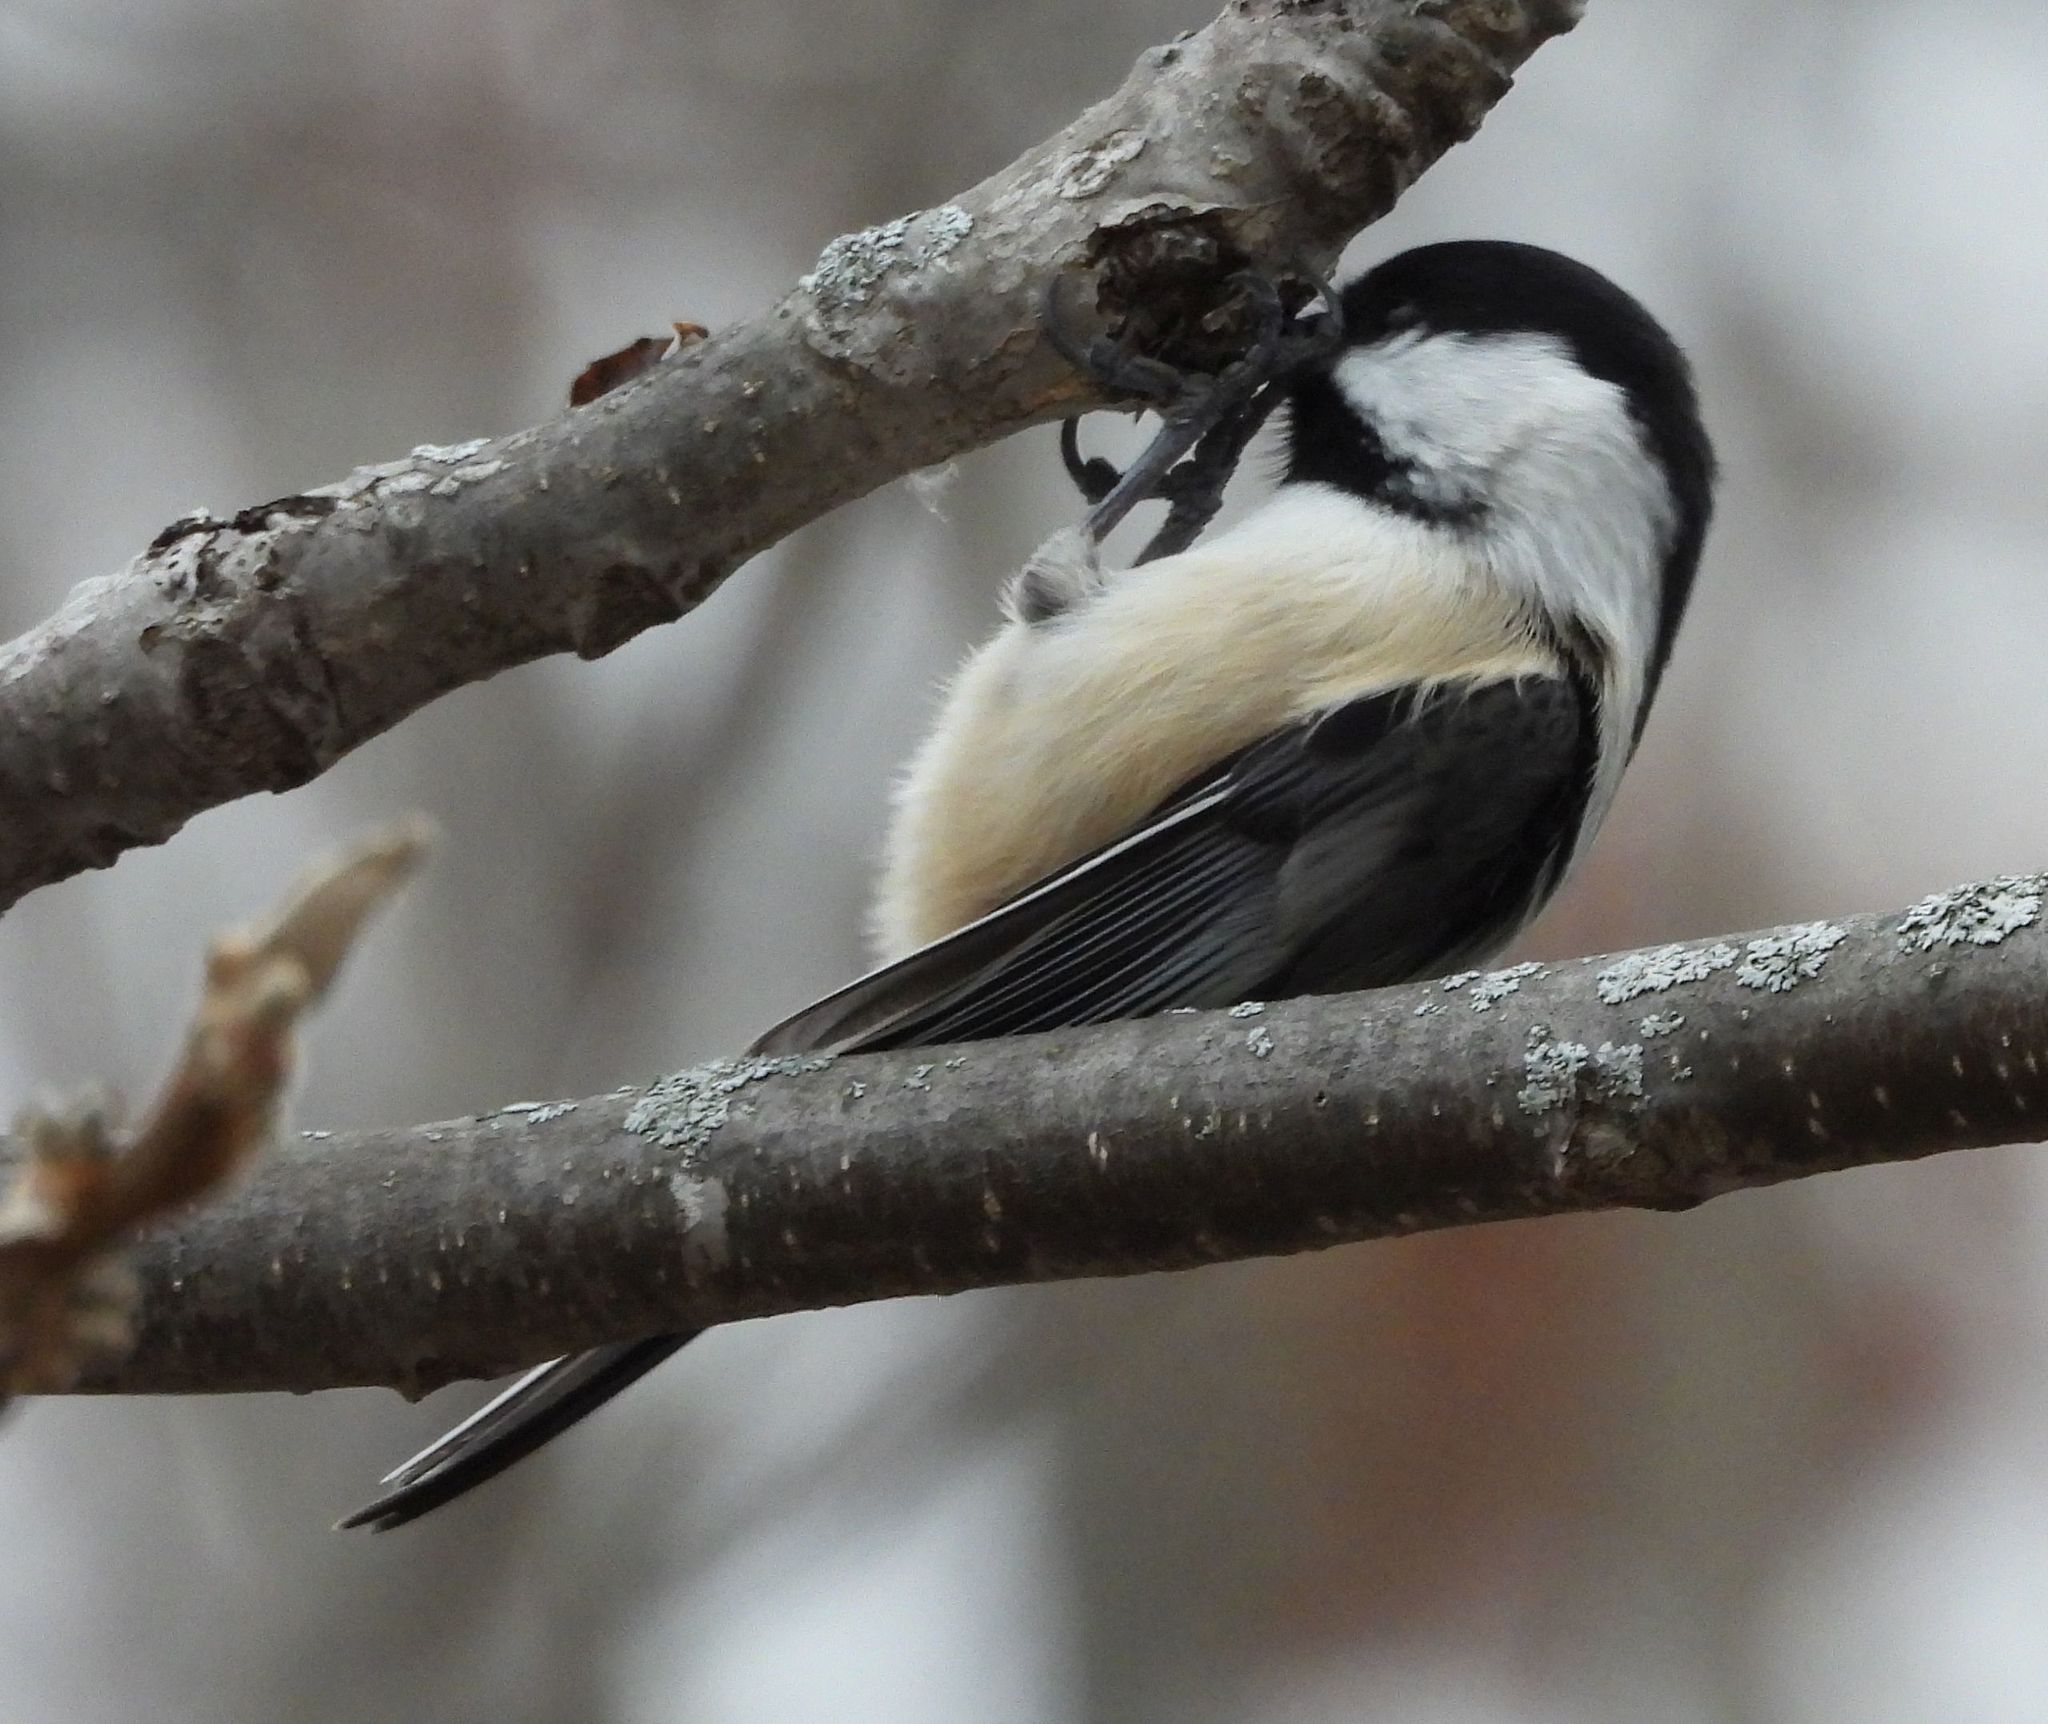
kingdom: Animalia
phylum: Chordata
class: Aves
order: Passeriformes
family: Paridae
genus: Poecile
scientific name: Poecile atricapillus
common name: Black-capped chickadee
